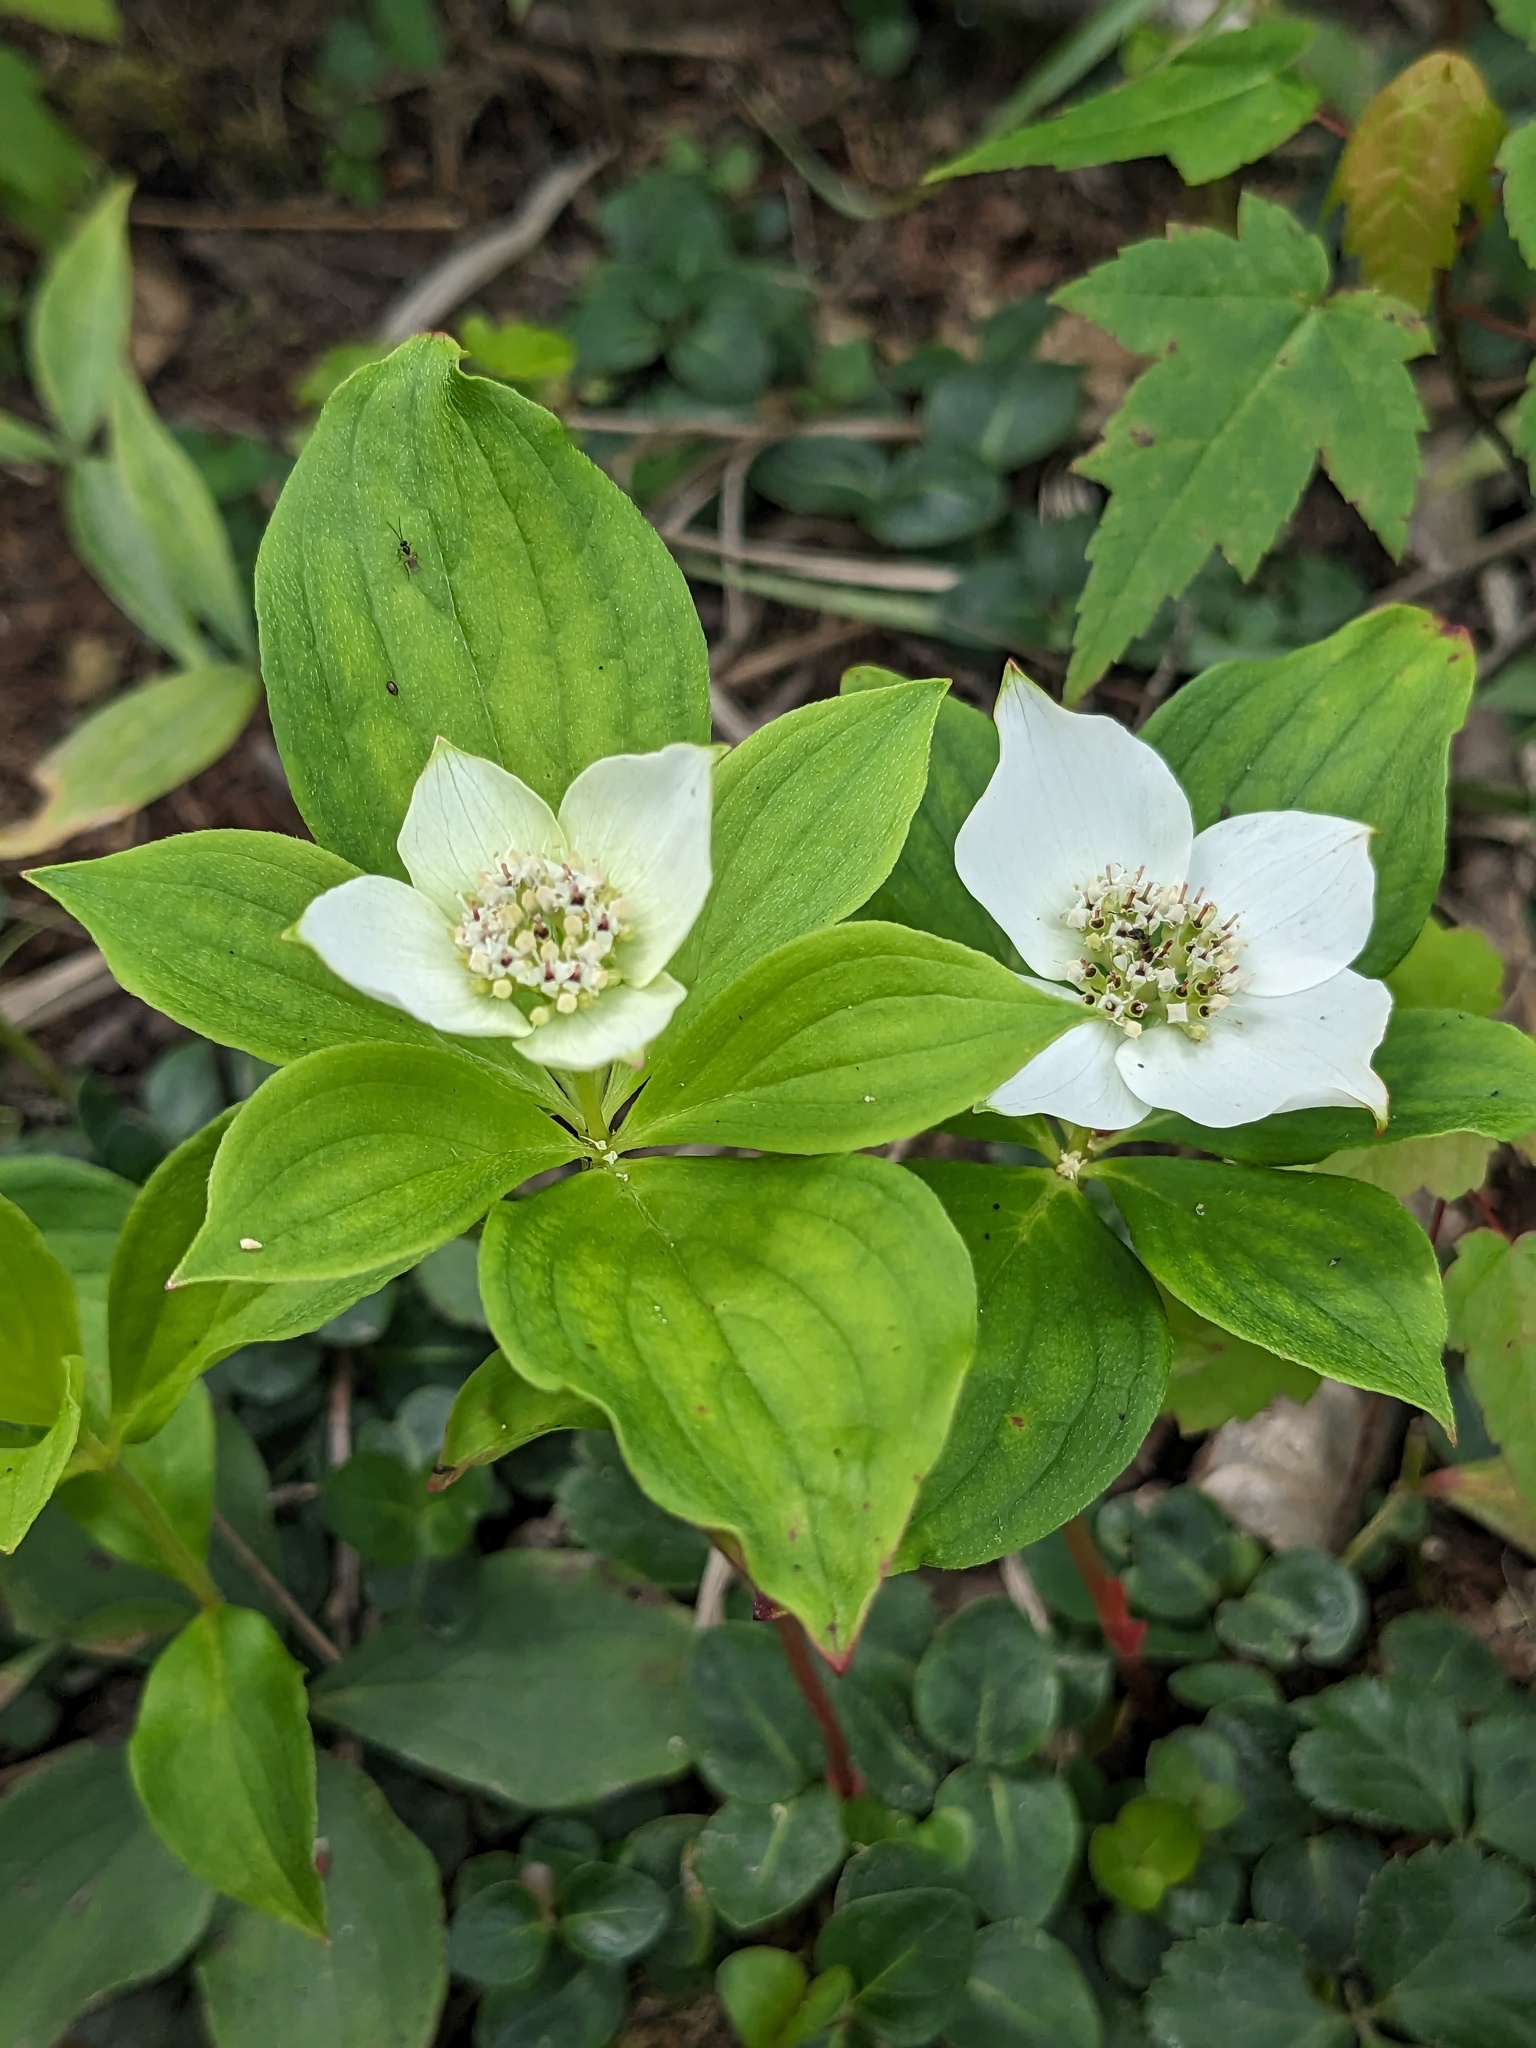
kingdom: Plantae
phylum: Tracheophyta
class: Magnoliopsida
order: Cornales
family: Cornaceae
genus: Cornus
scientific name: Cornus canadensis
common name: Creeping dogwood
